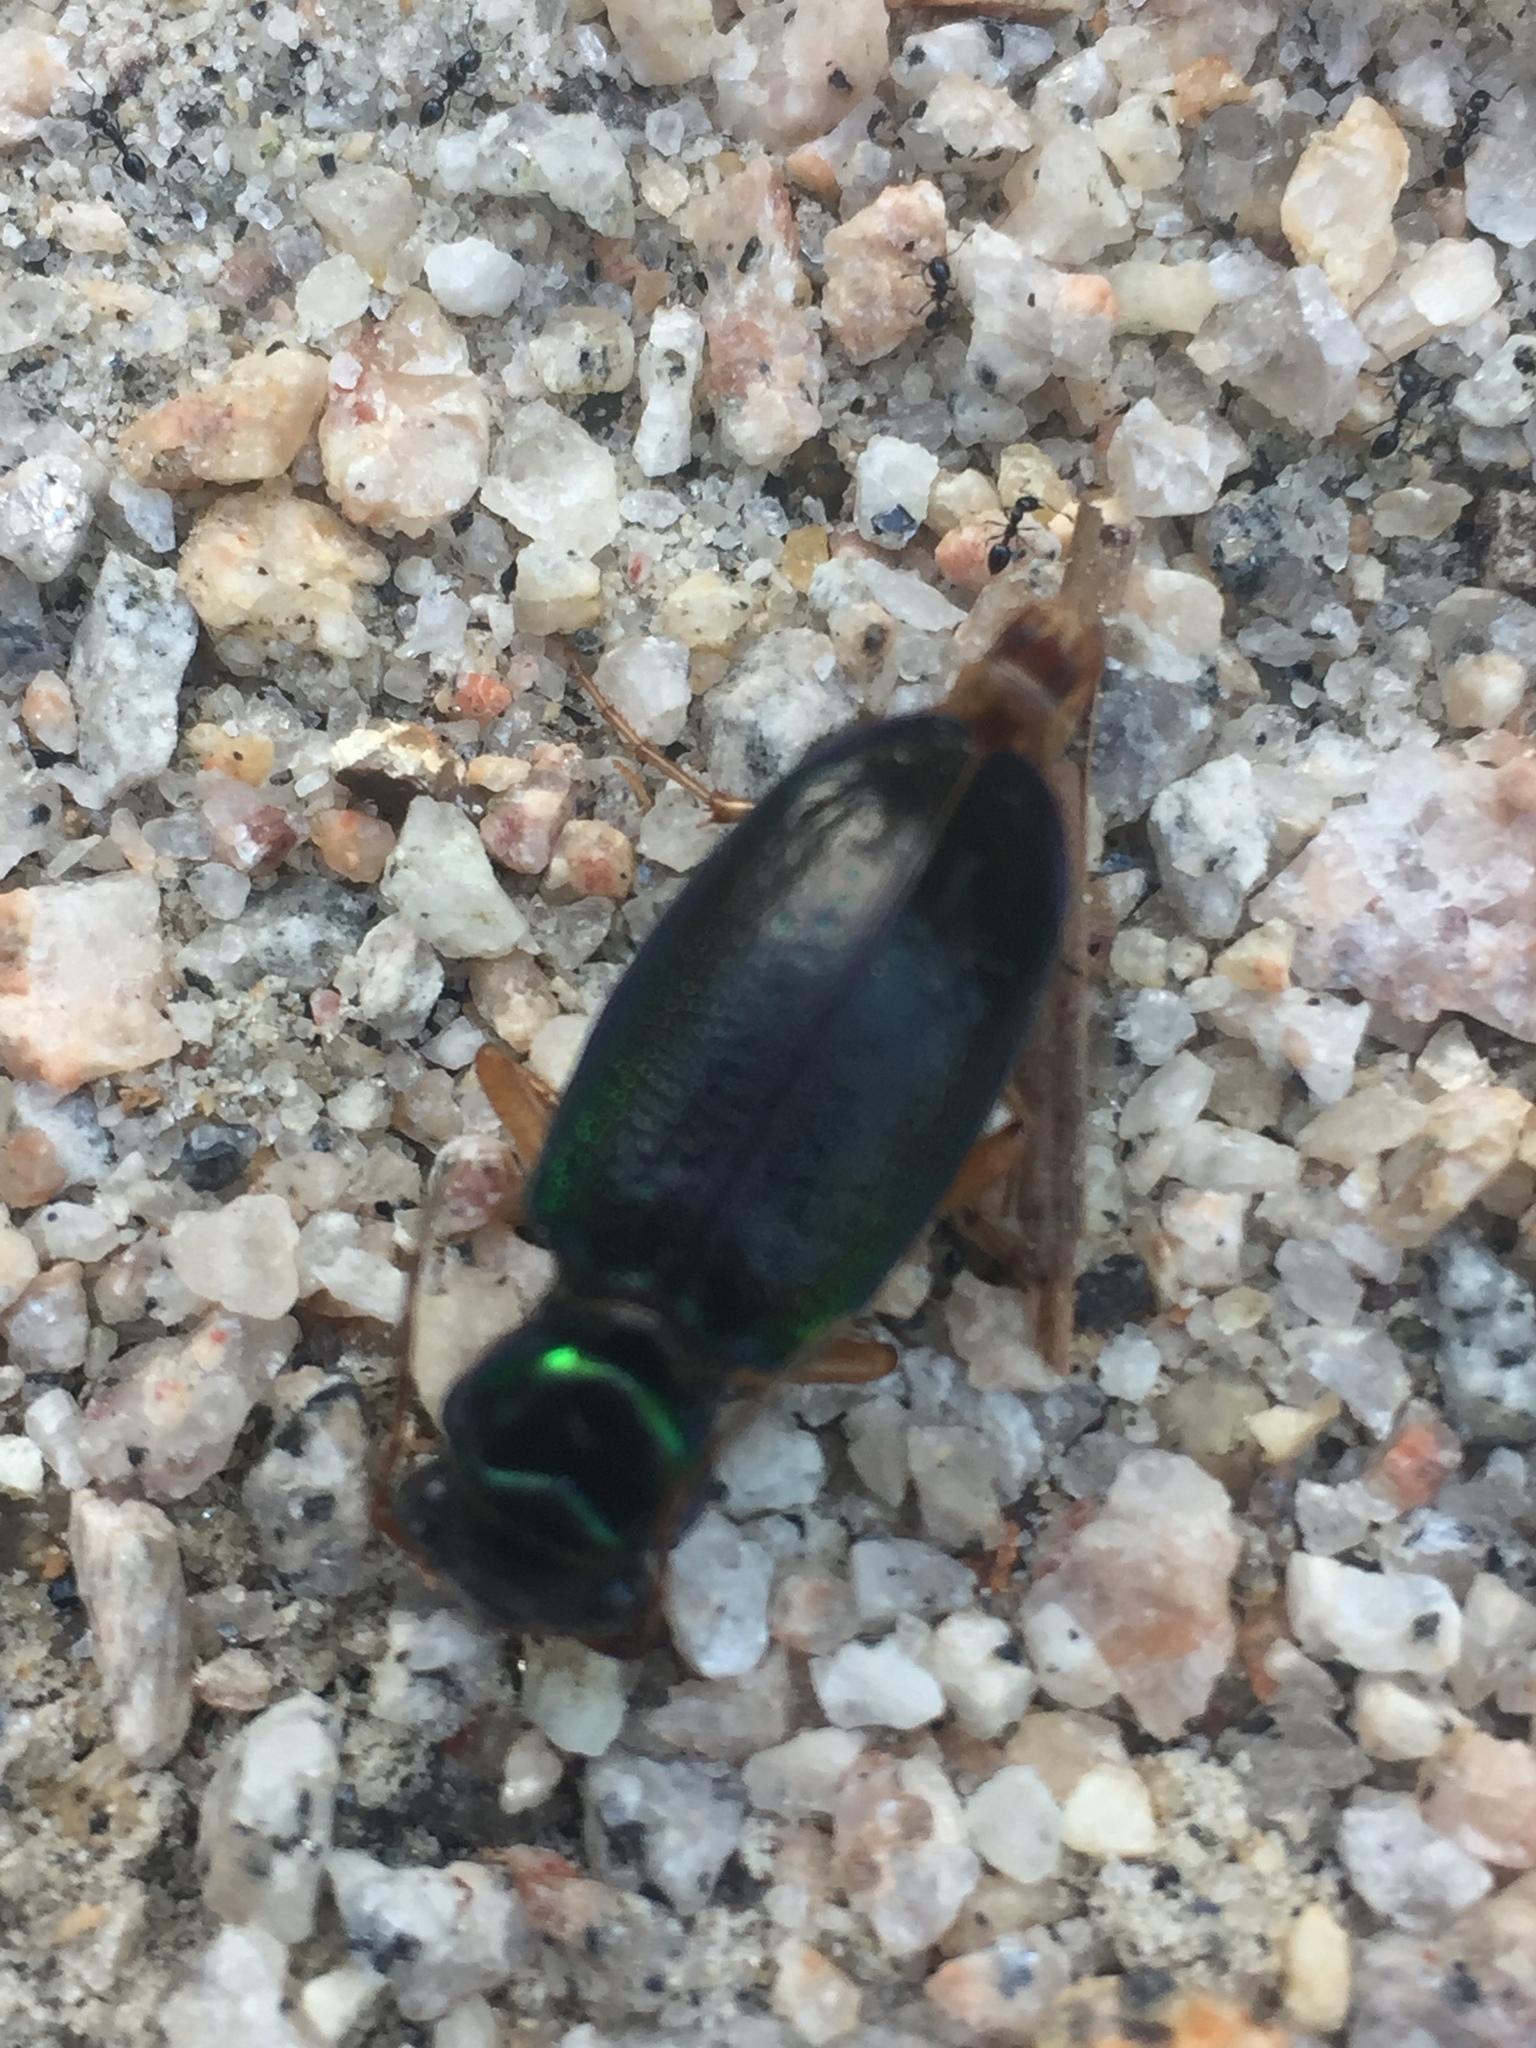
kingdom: Animalia
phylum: Arthropoda
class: Insecta
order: Coleoptera
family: Carabidae
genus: Tetracha
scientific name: Tetracha virginica
